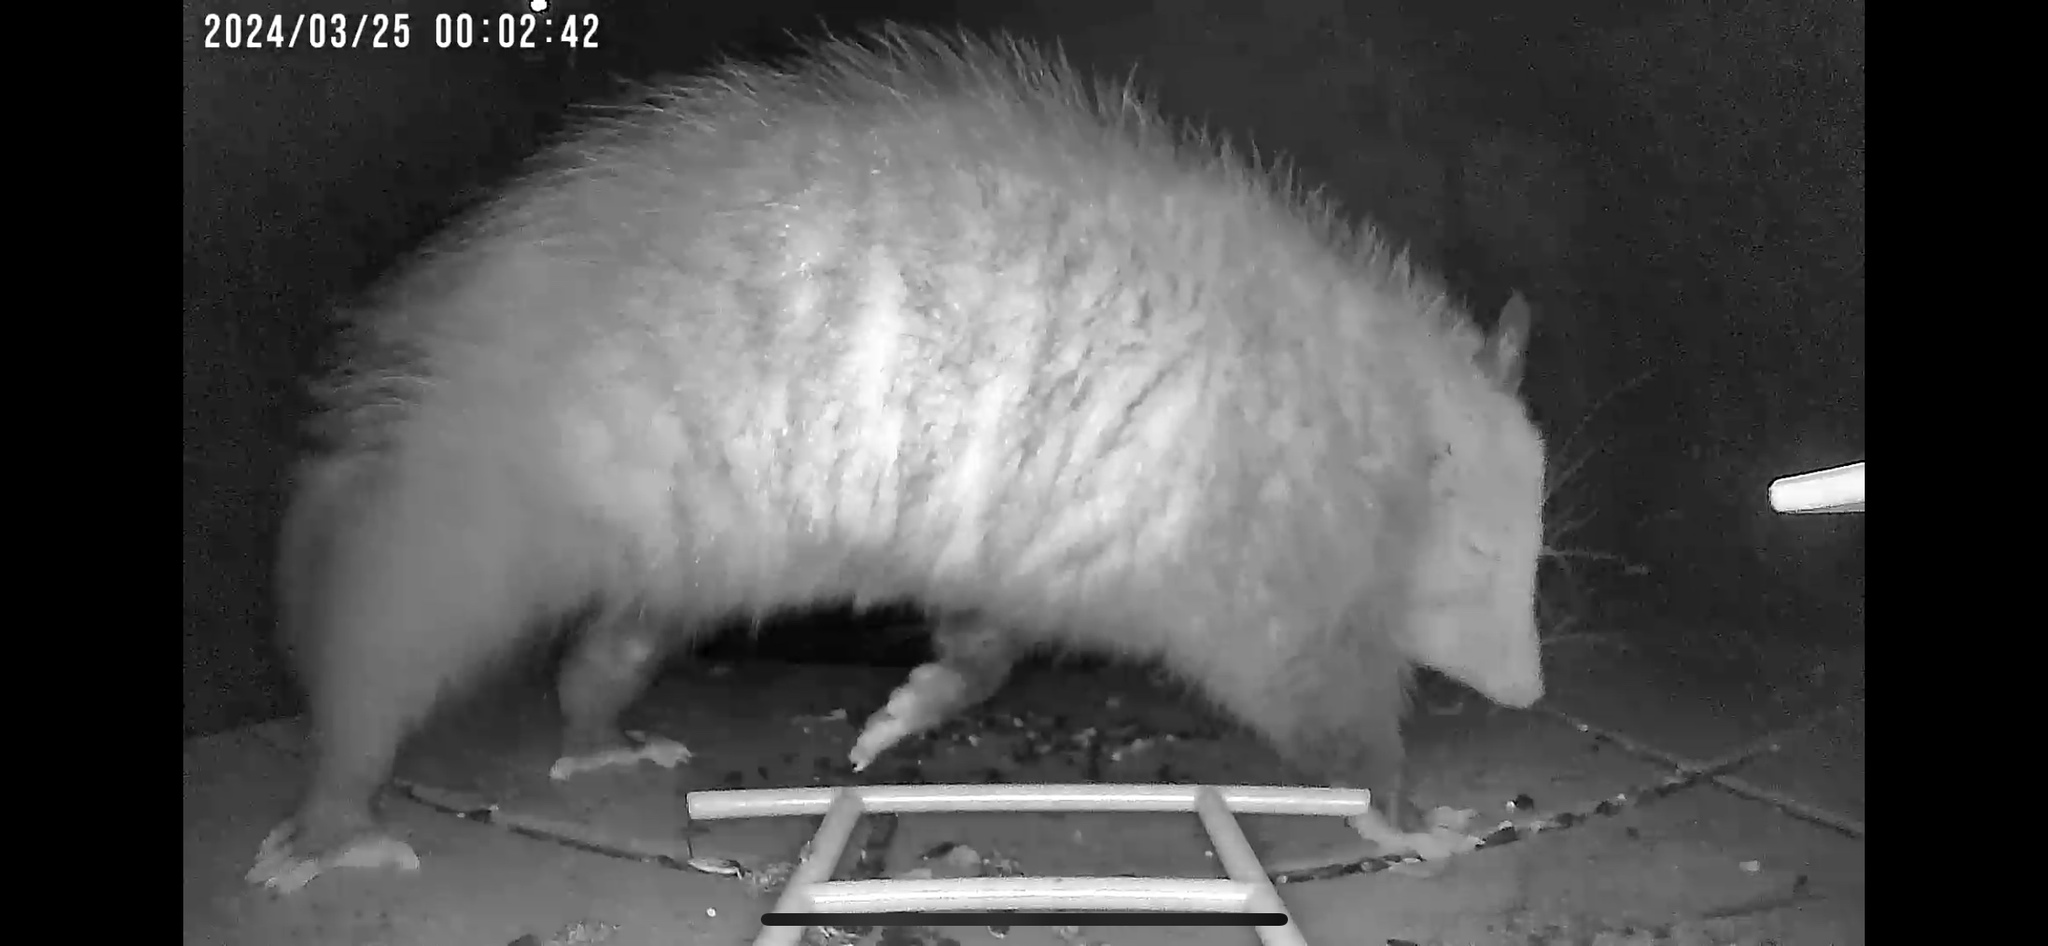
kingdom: Animalia
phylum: Chordata
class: Mammalia
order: Didelphimorphia
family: Didelphidae
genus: Didelphis
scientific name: Didelphis virginiana
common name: Virginia opossum
